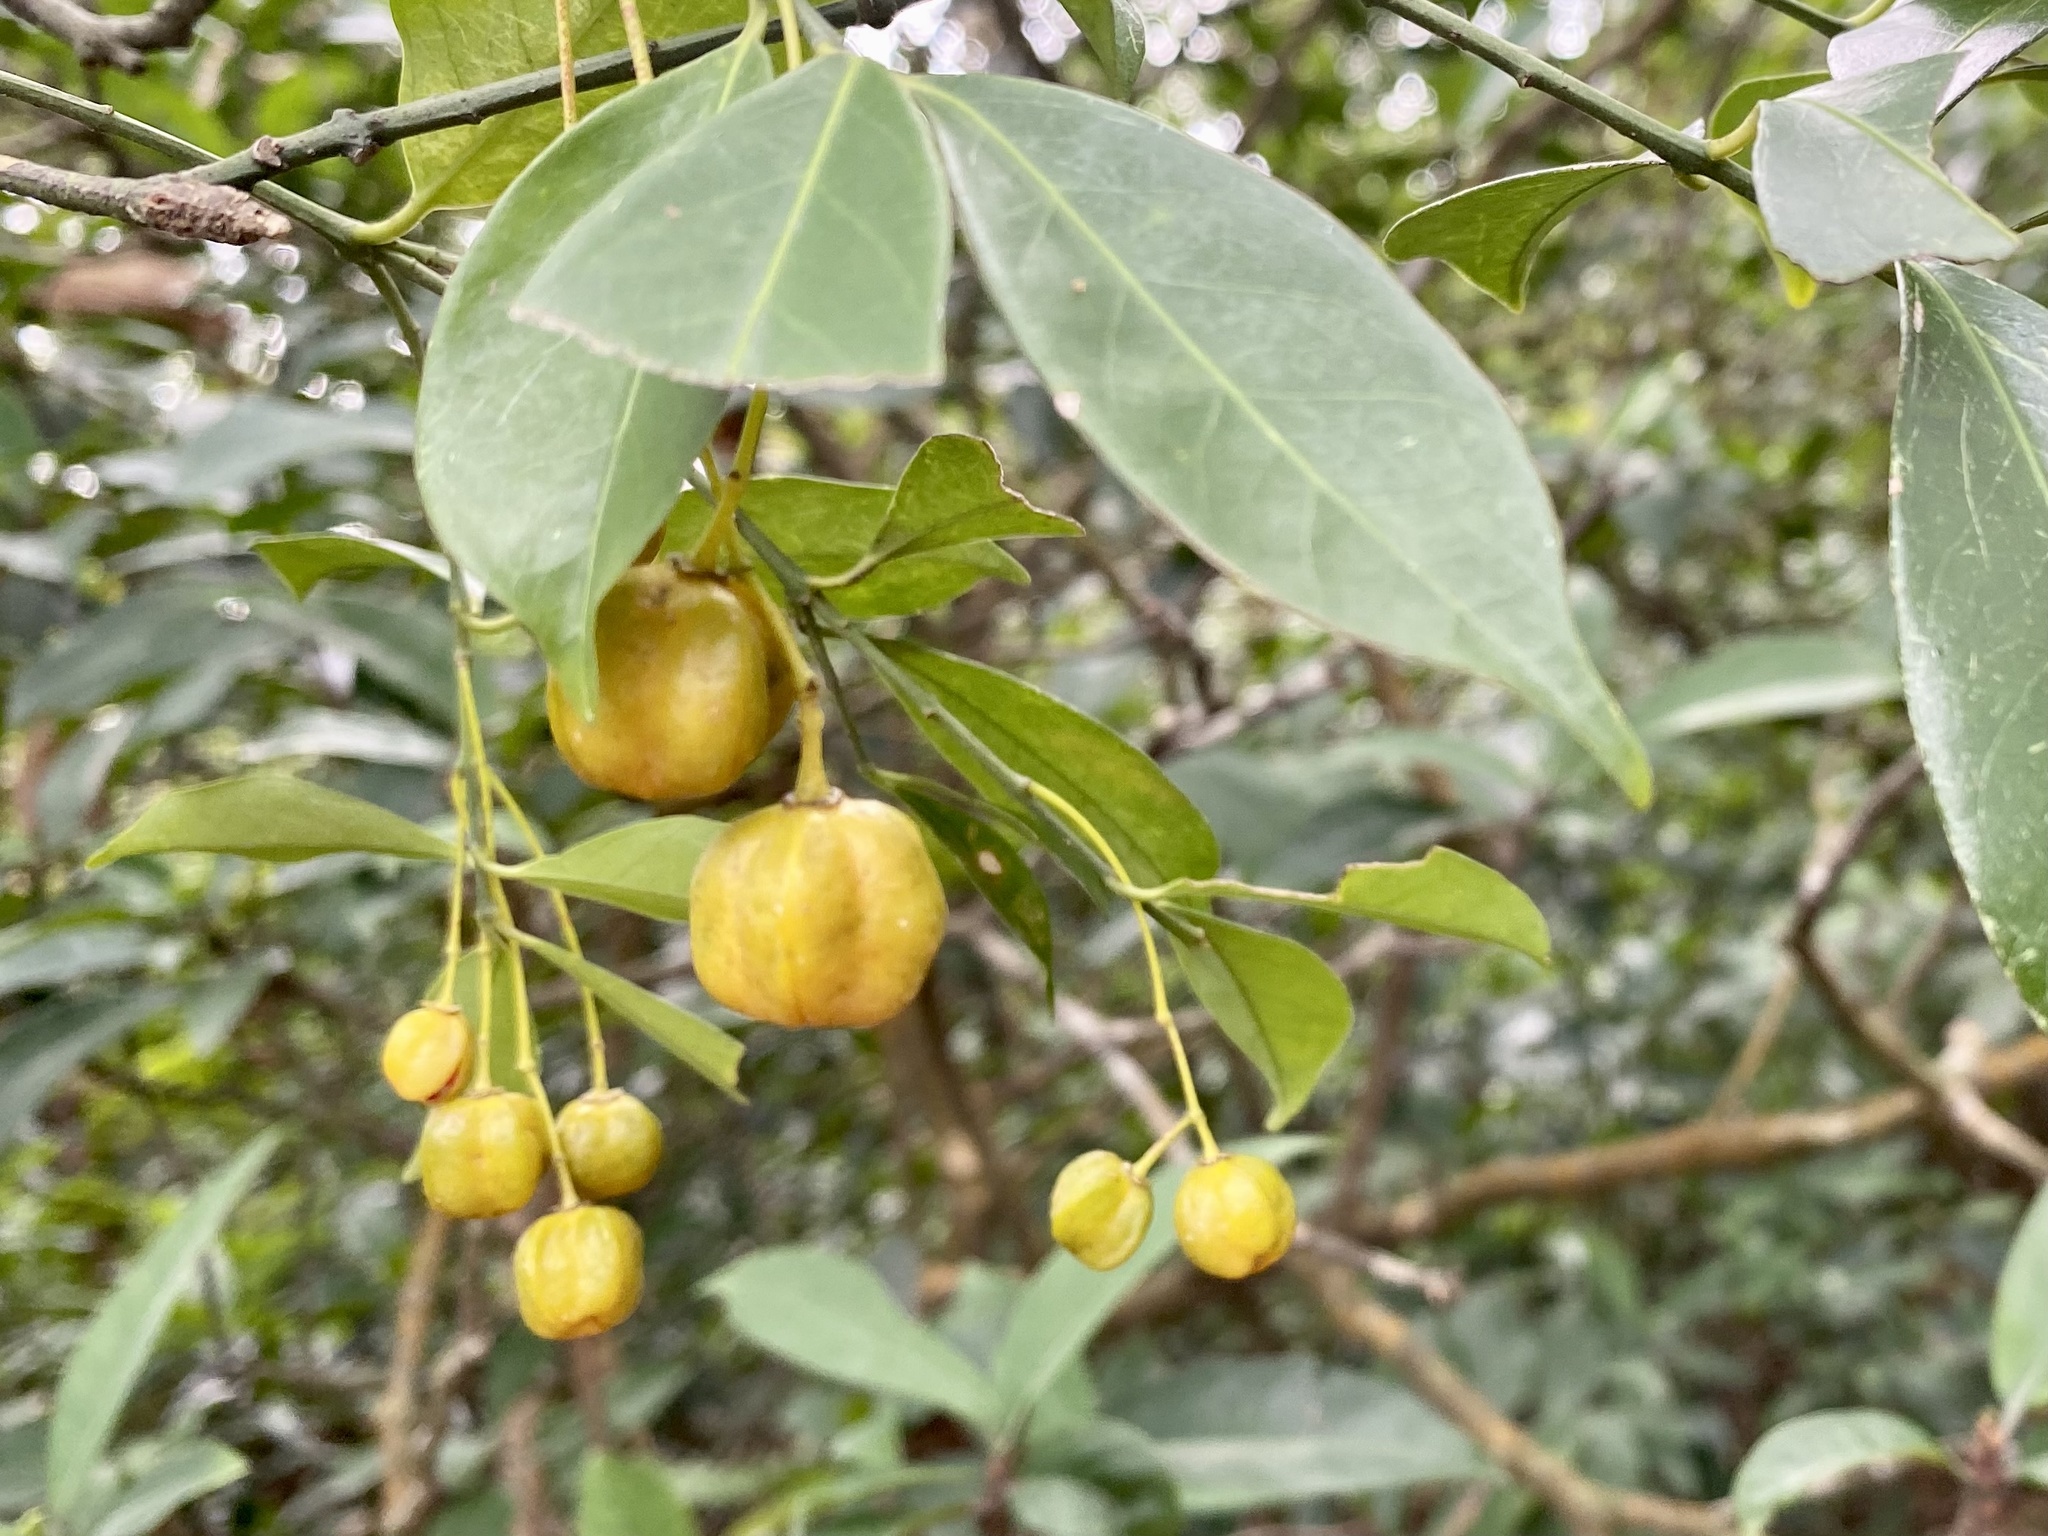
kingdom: Plantae
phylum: Tracheophyta
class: Magnoliopsida
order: Celastrales
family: Celastraceae
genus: Euonymus
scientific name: Euonymus nitidus
